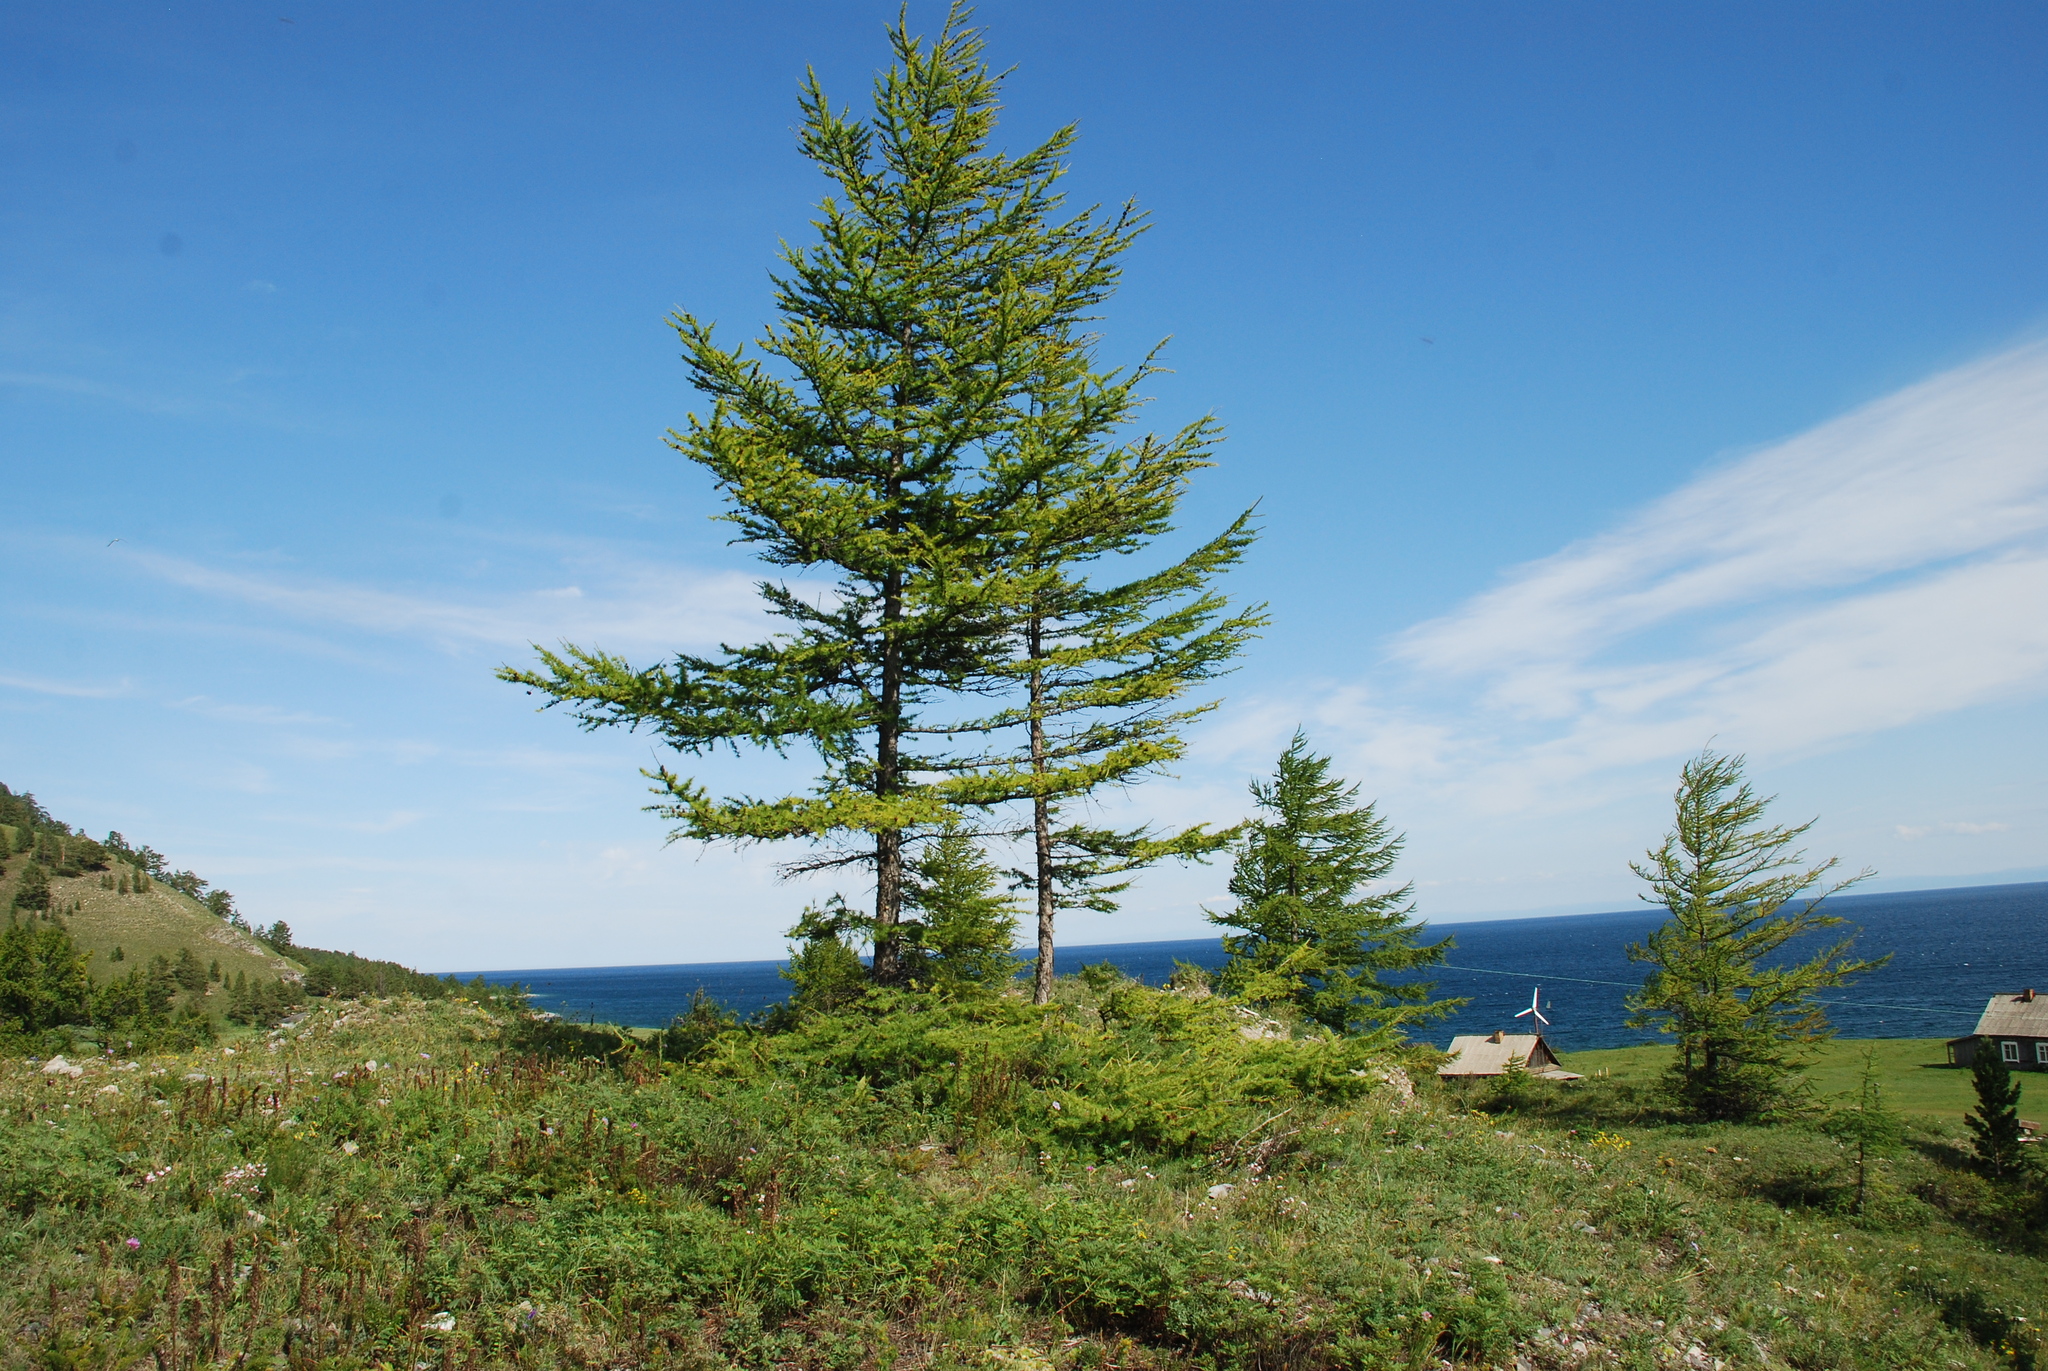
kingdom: Plantae
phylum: Tracheophyta
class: Pinopsida
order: Pinales
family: Pinaceae
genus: Larix
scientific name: Larix sibirica
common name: Siberian larch
